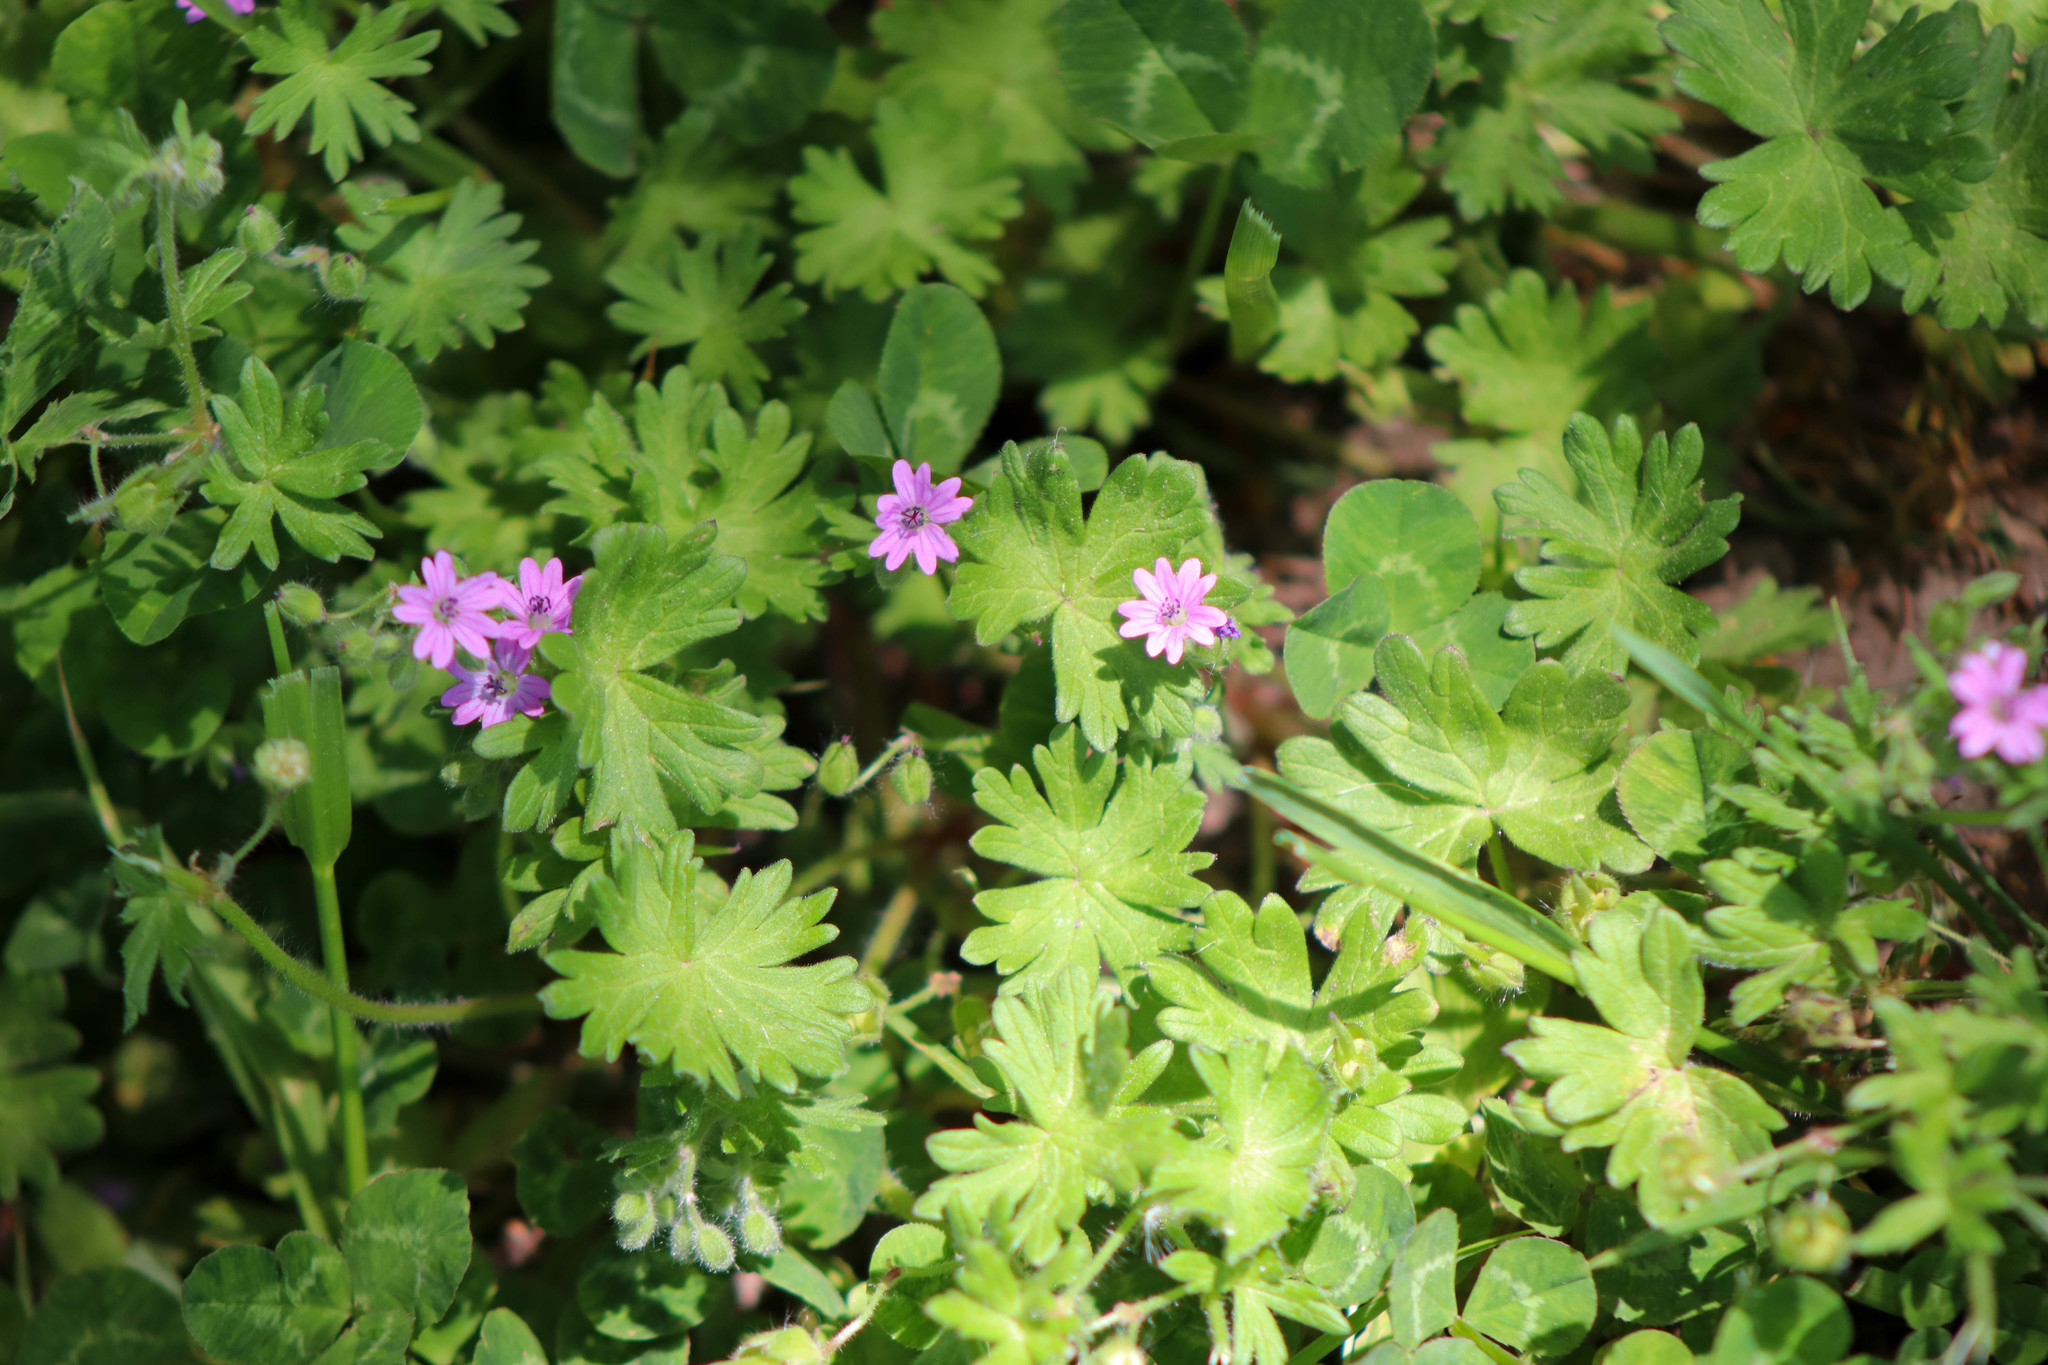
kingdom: Plantae
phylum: Tracheophyta
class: Magnoliopsida
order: Geraniales
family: Geraniaceae
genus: Geranium
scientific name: Geranium molle
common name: Dove's-foot crane's-bill
